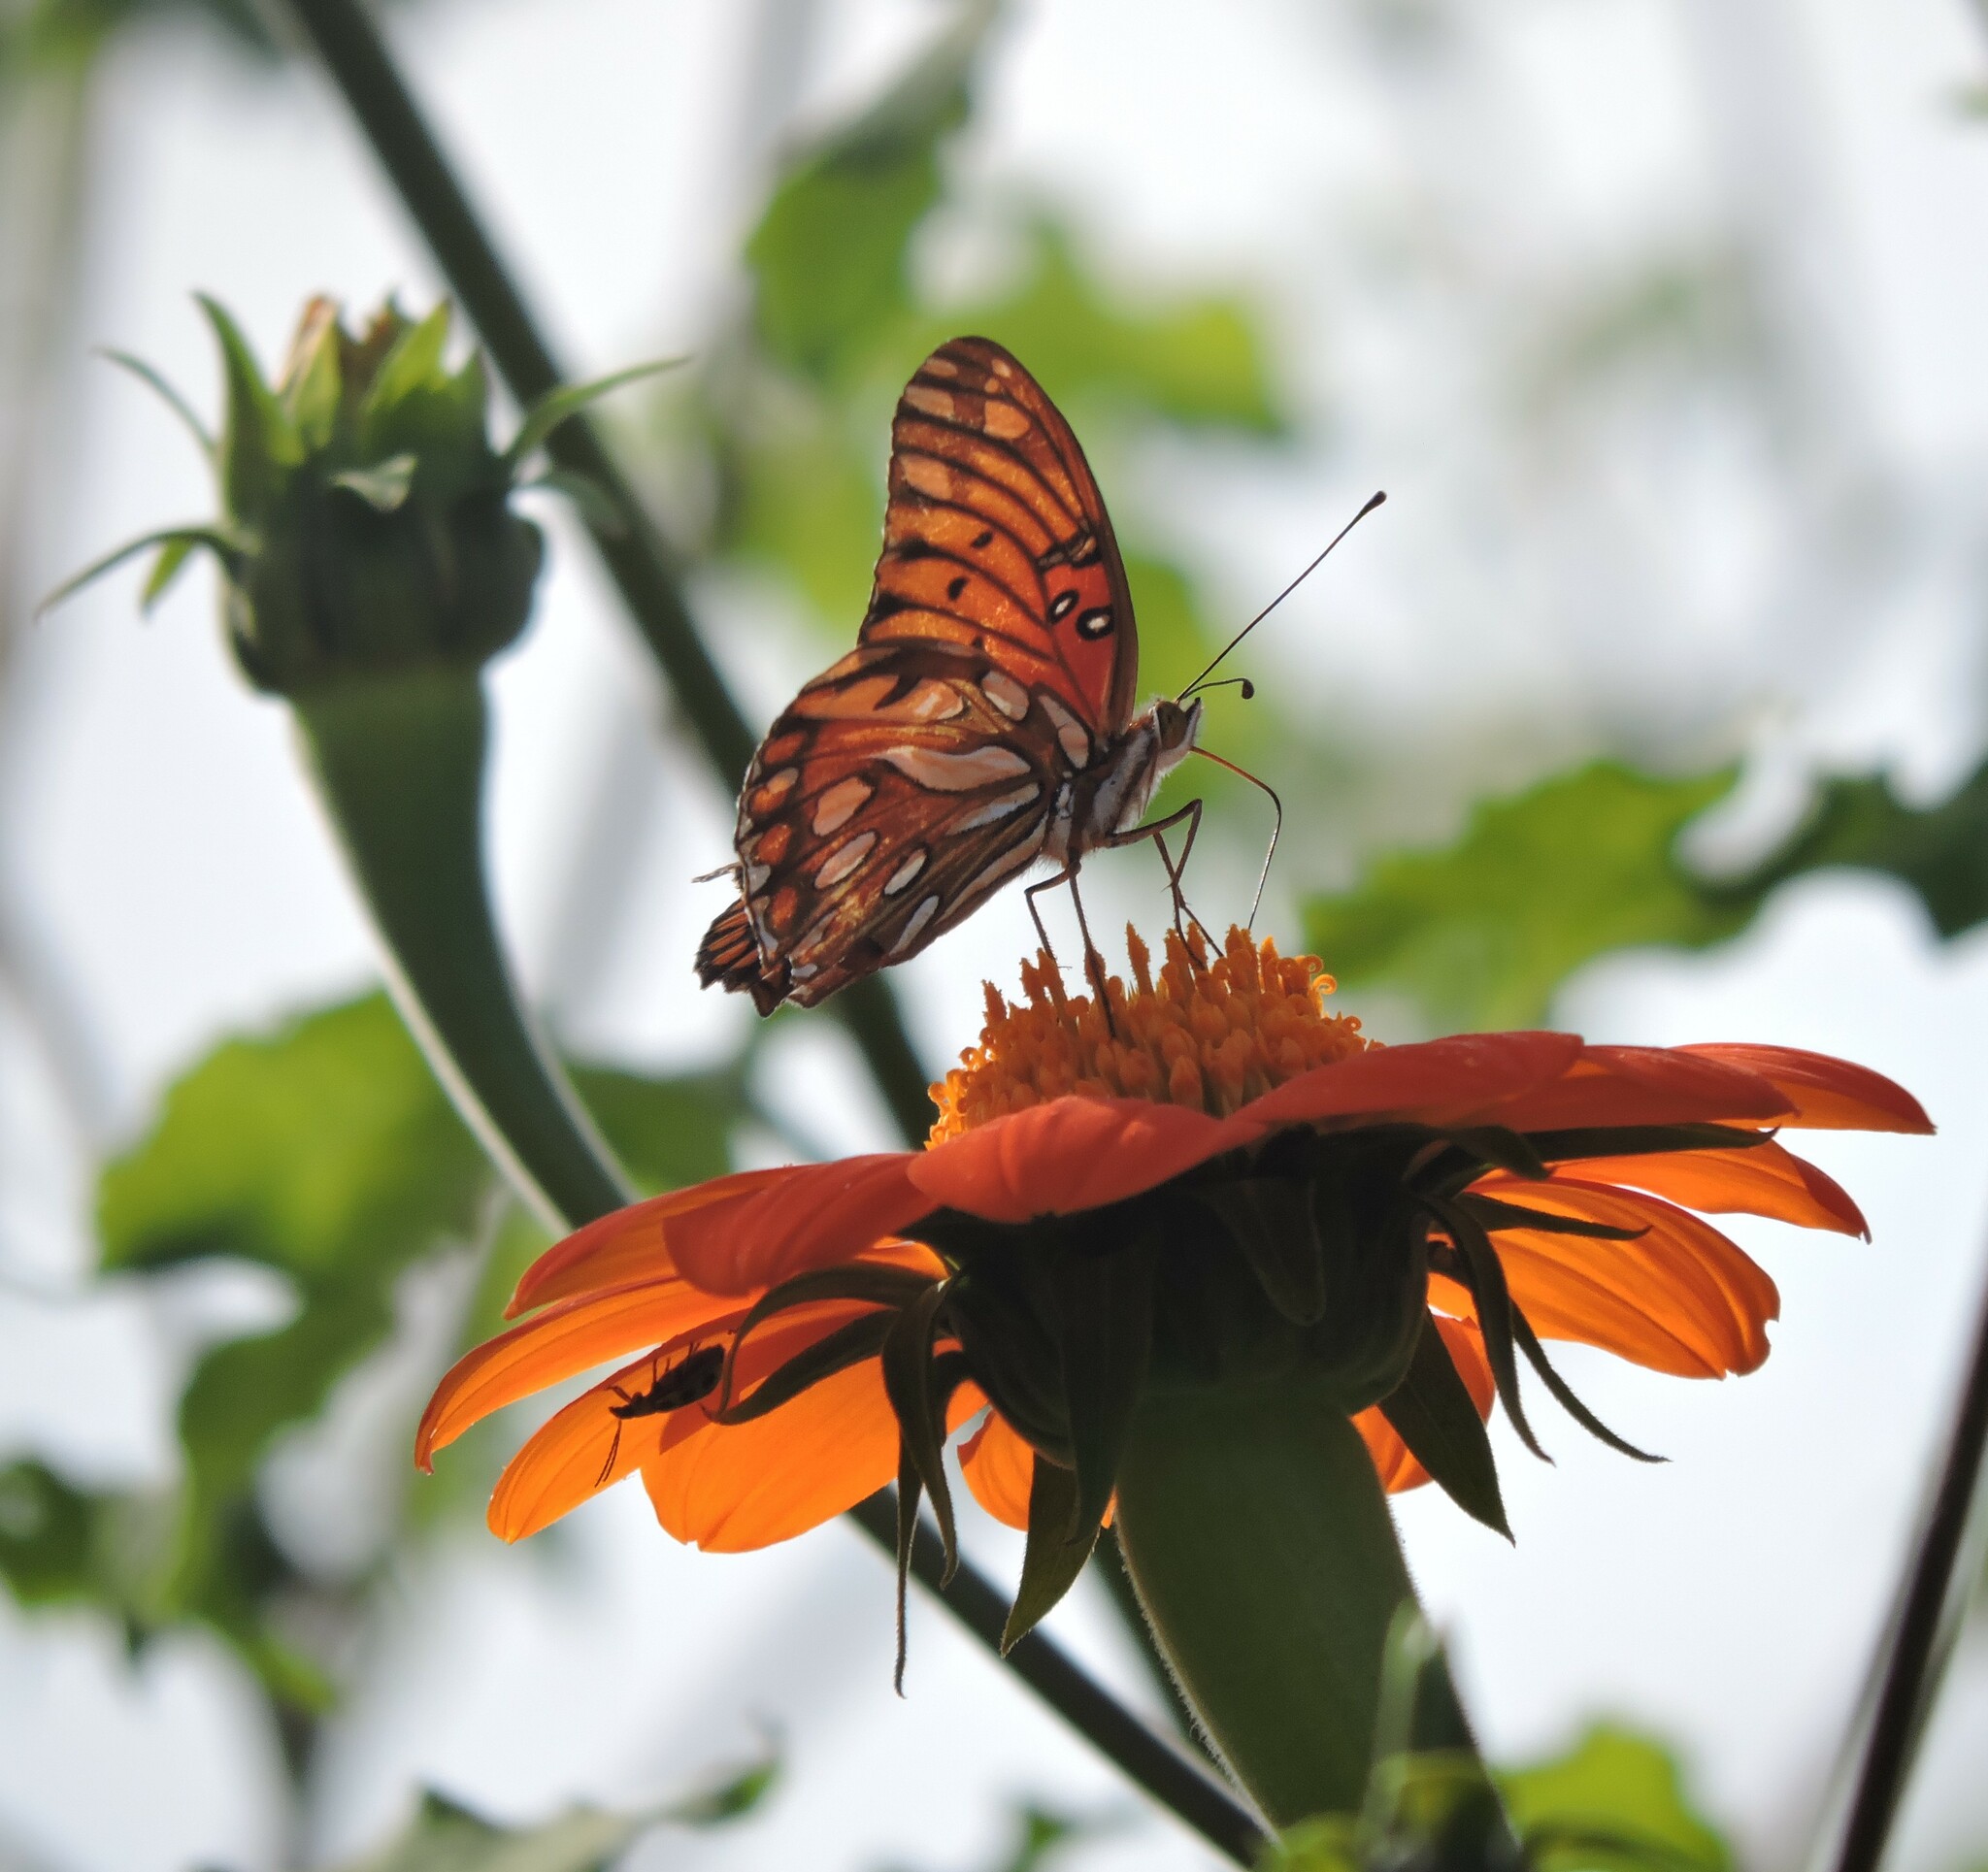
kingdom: Animalia
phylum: Arthropoda
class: Insecta
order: Lepidoptera
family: Nymphalidae
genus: Dione
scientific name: Dione vanillae
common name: Gulf fritillary
